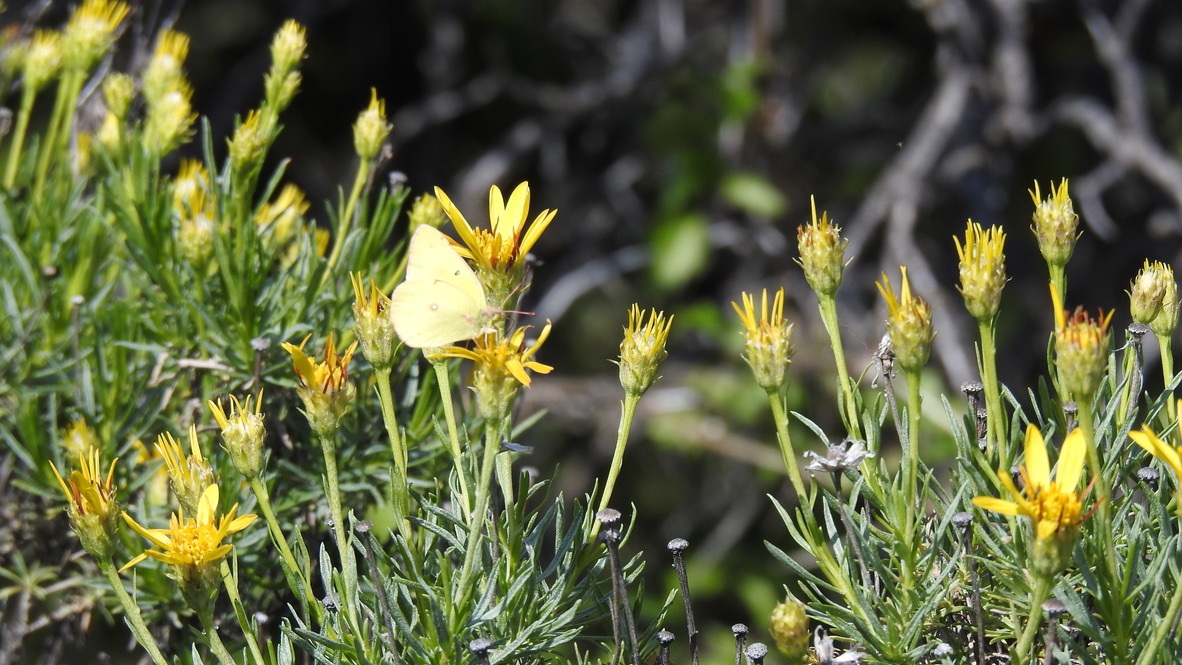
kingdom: Animalia
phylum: Arthropoda
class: Insecta
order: Lepidoptera
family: Pieridae
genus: Colias
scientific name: Colias eurytheme
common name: Alfalfa butterfly
